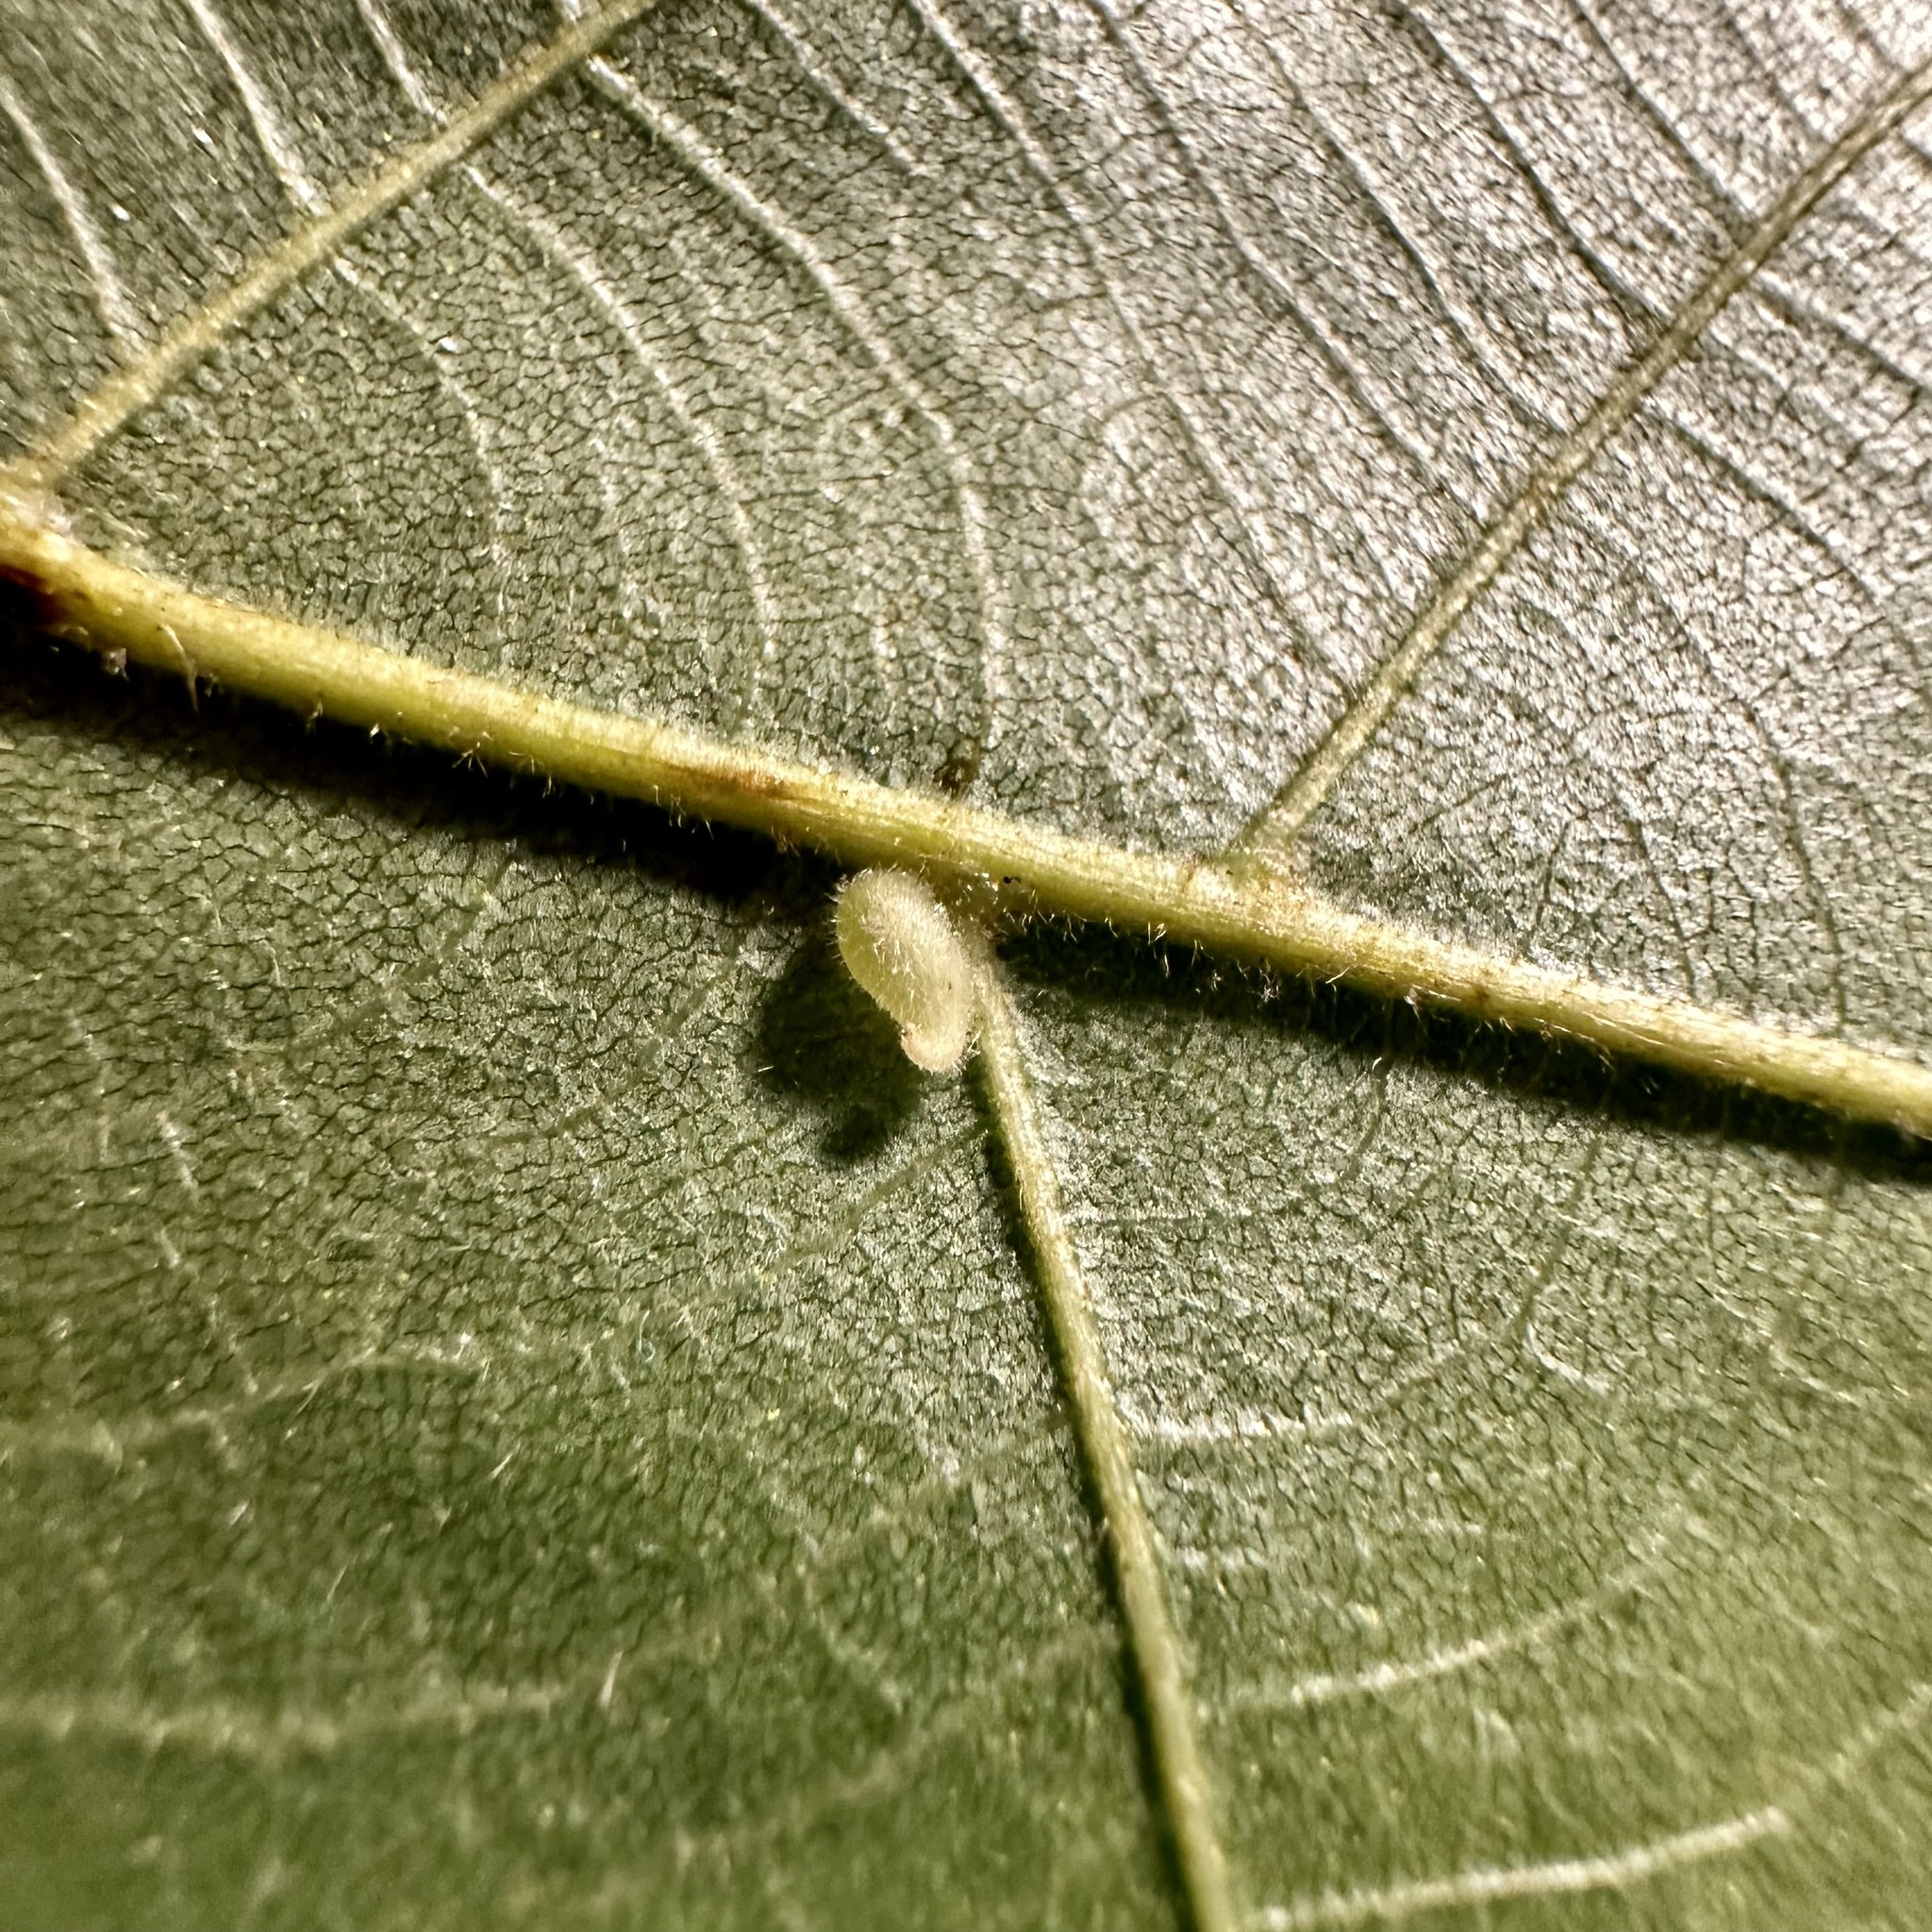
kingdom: Animalia
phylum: Arthropoda
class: Insecta
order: Diptera
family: Cecidomyiidae
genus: Caryomyia
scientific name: Caryomyia eumaris
